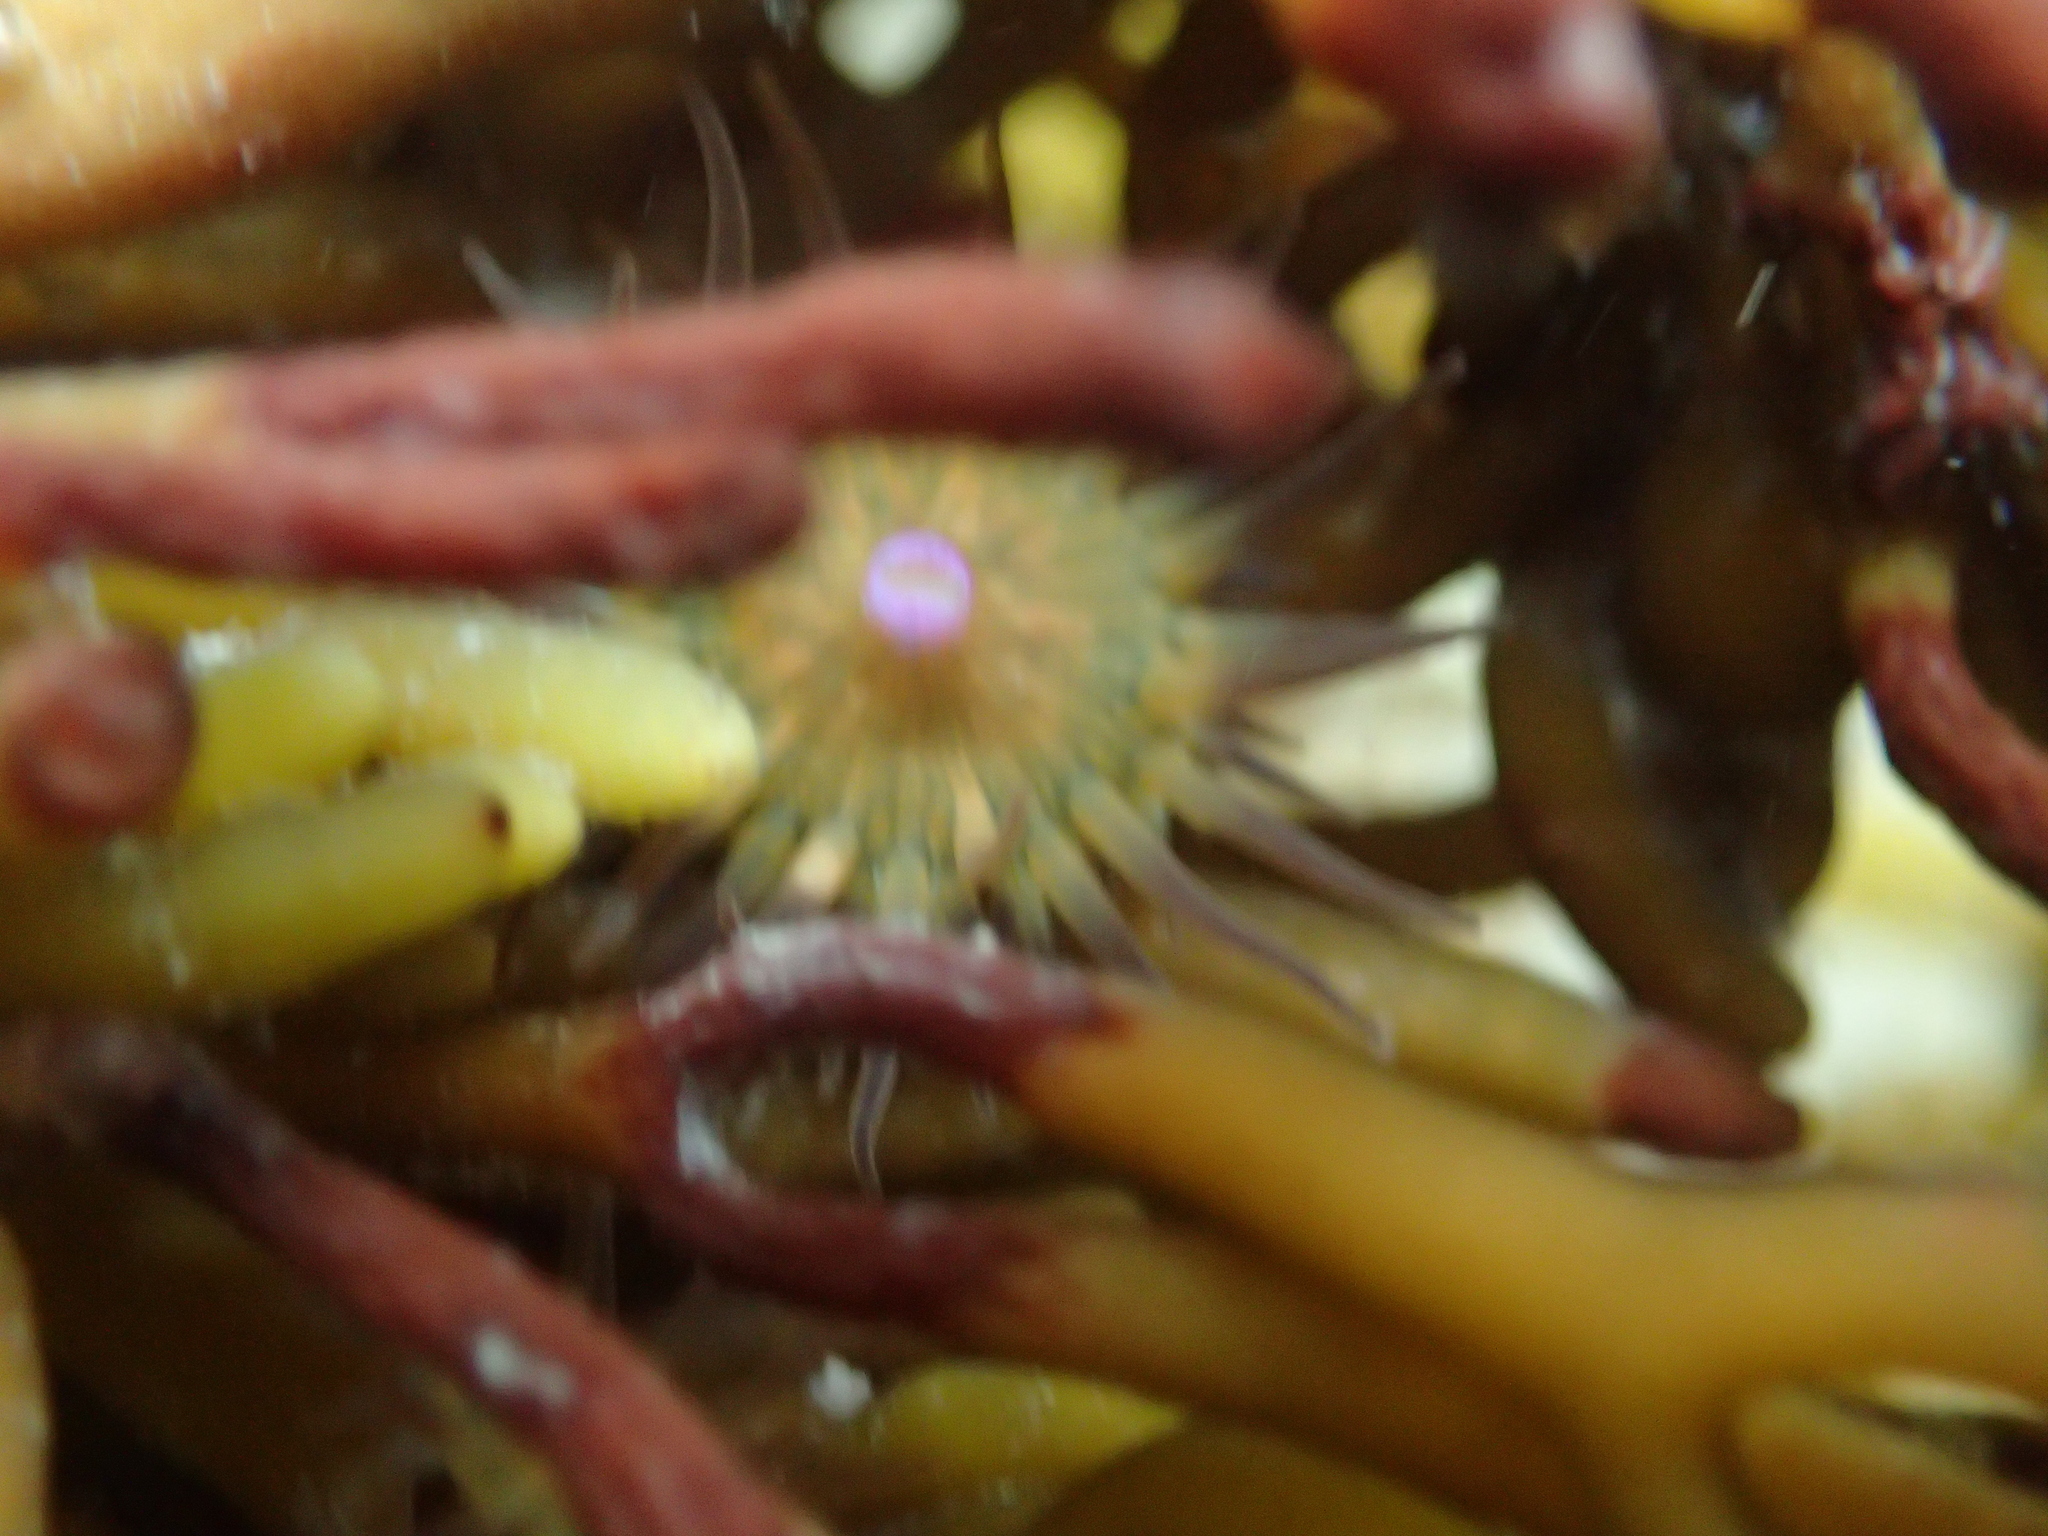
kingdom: Animalia
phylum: Cnidaria
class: Anthozoa
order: Actiniaria
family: Hormathiidae
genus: Handactis
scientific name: Handactis nutrix
